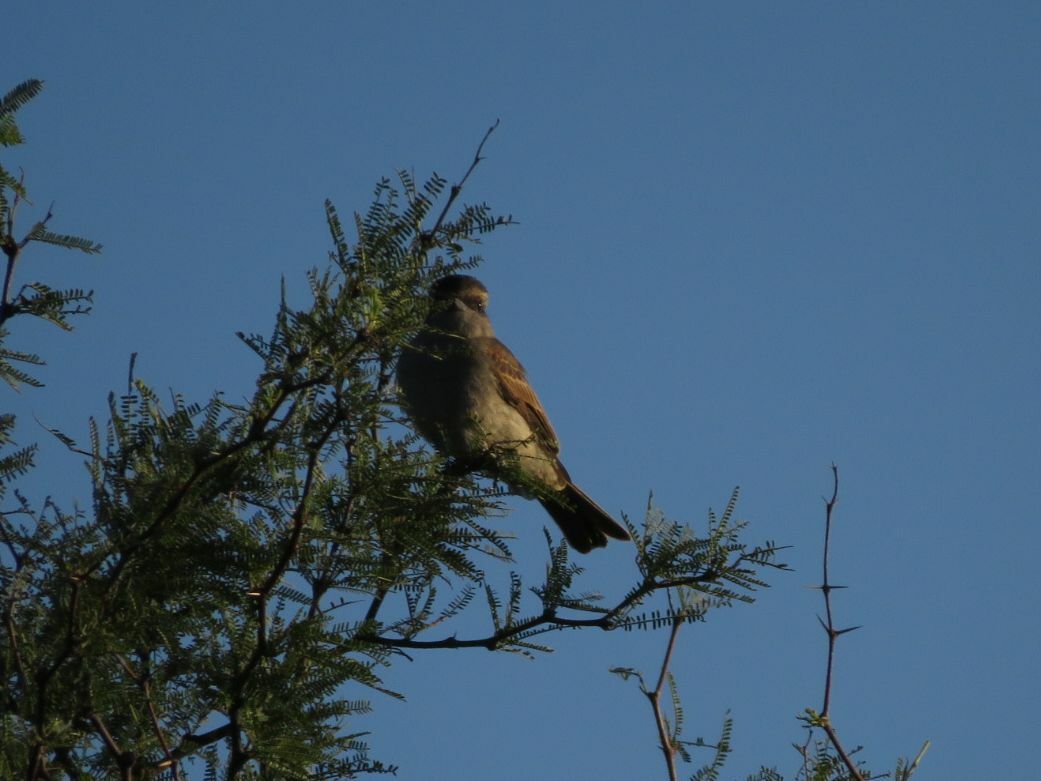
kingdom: Animalia
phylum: Chordata
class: Aves
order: Passeriformes
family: Tyrannidae
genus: Empidonomus
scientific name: Empidonomus aurantioatrocristatus
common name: Crowned slaty flycatcher
